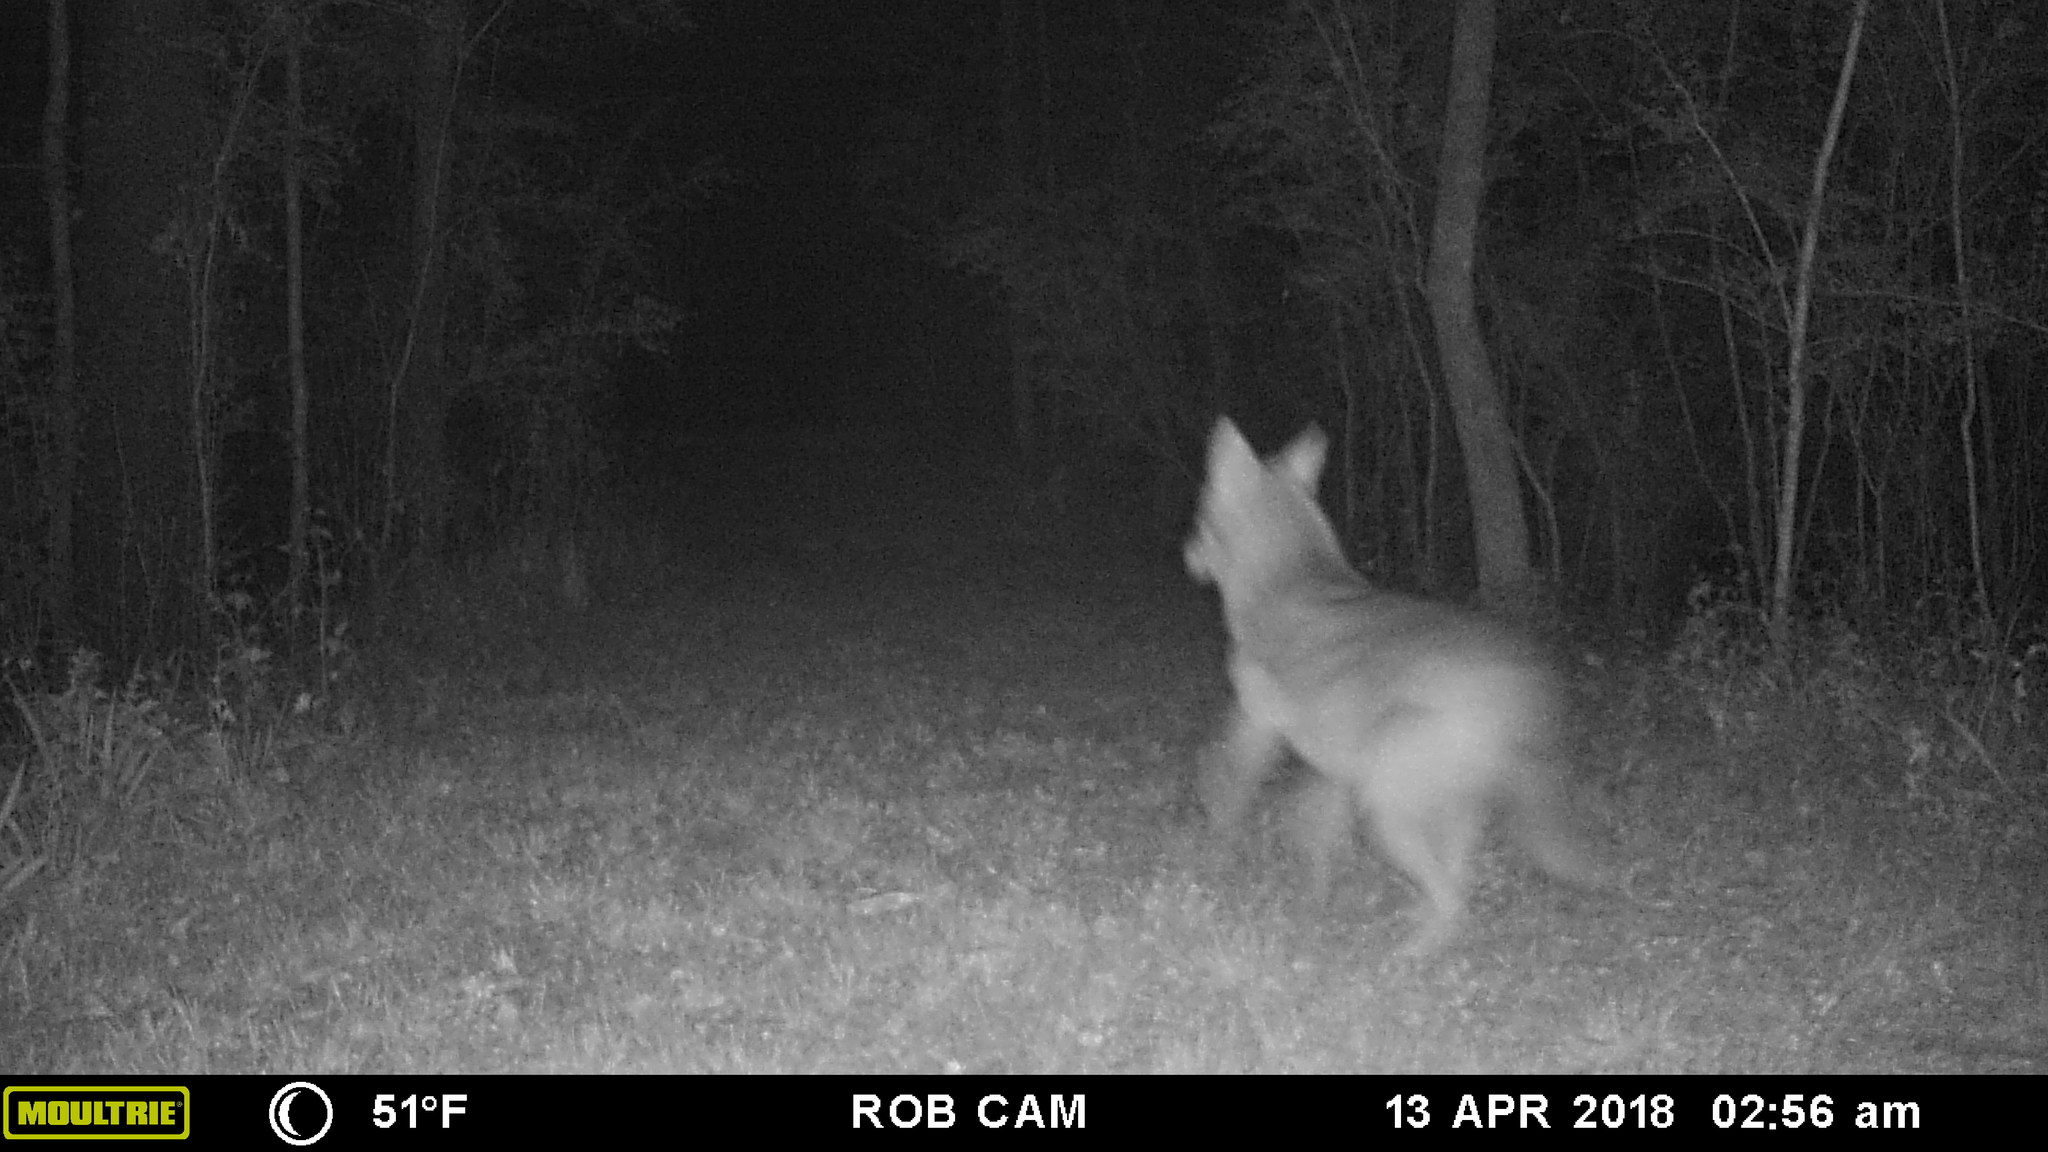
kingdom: Animalia
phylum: Chordata
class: Mammalia
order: Carnivora
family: Canidae
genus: Canis
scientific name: Canis latrans
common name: Coyote
